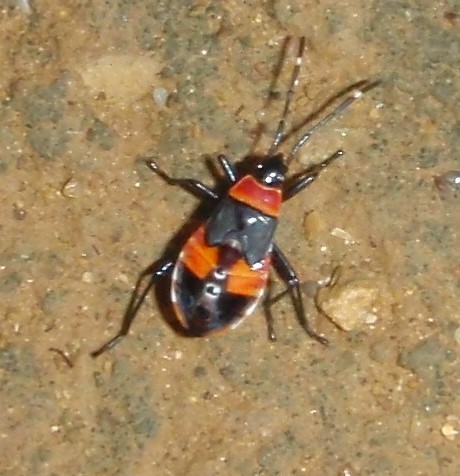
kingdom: Animalia
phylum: Arthropoda
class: Insecta
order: Hemiptera
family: Pyrrhocoridae
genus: Dindymus
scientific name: Dindymus
